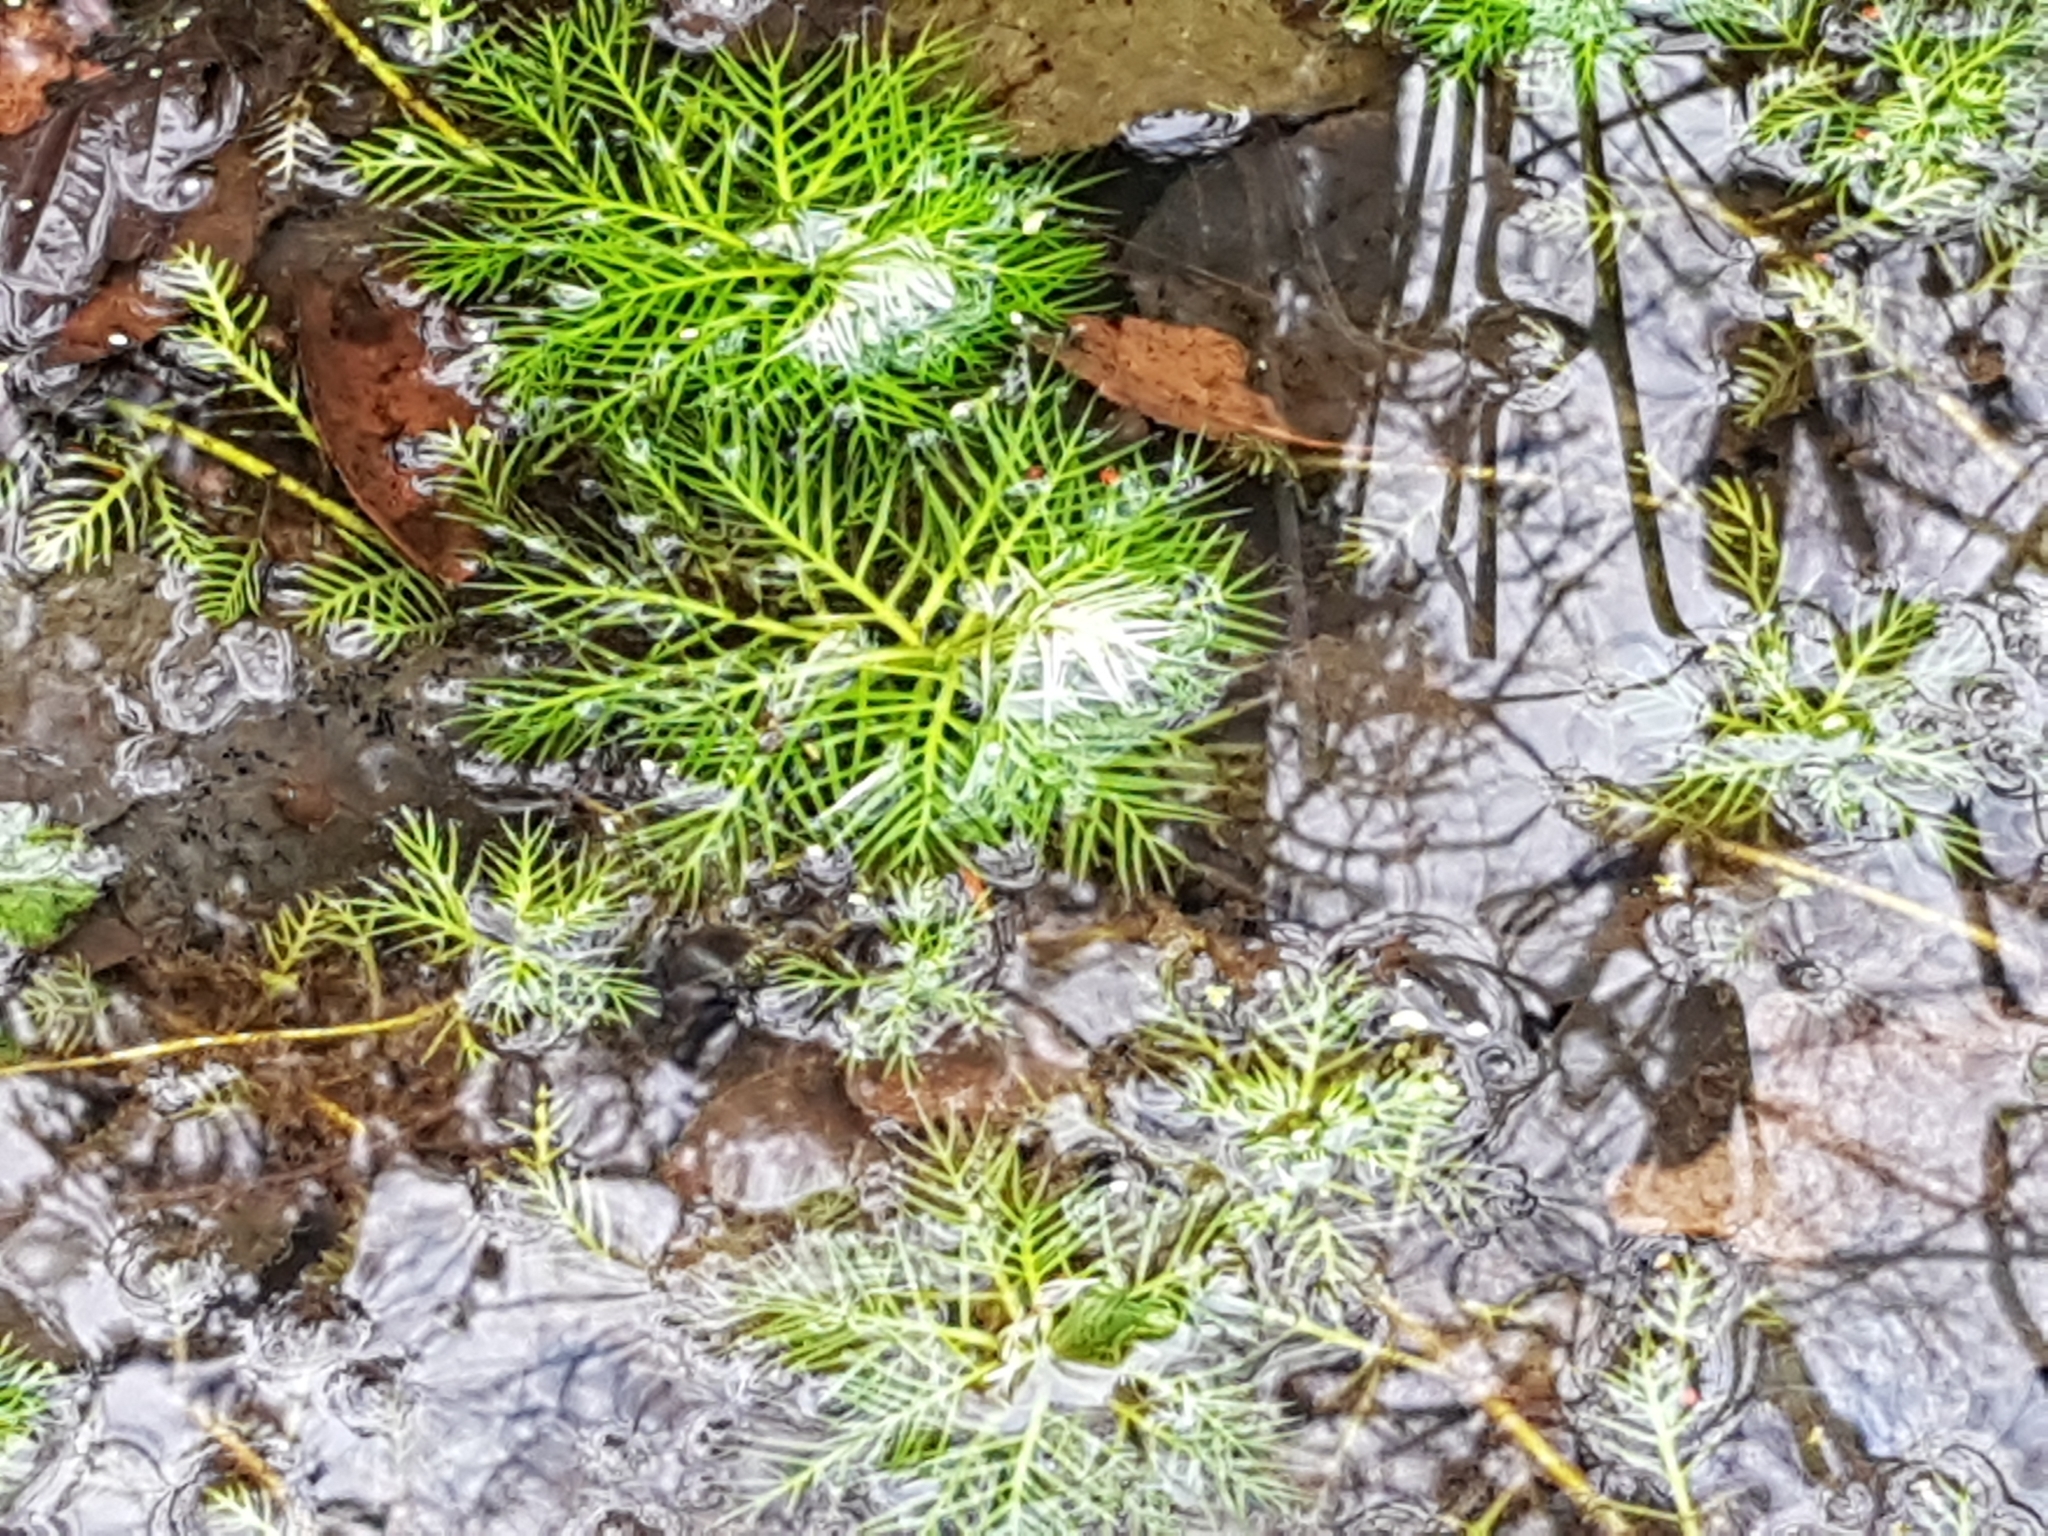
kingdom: Plantae
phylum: Tracheophyta
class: Magnoliopsida
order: Ericales
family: Primulaceae
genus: Hottonia
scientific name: Hottonia palustris
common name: Water-violet
